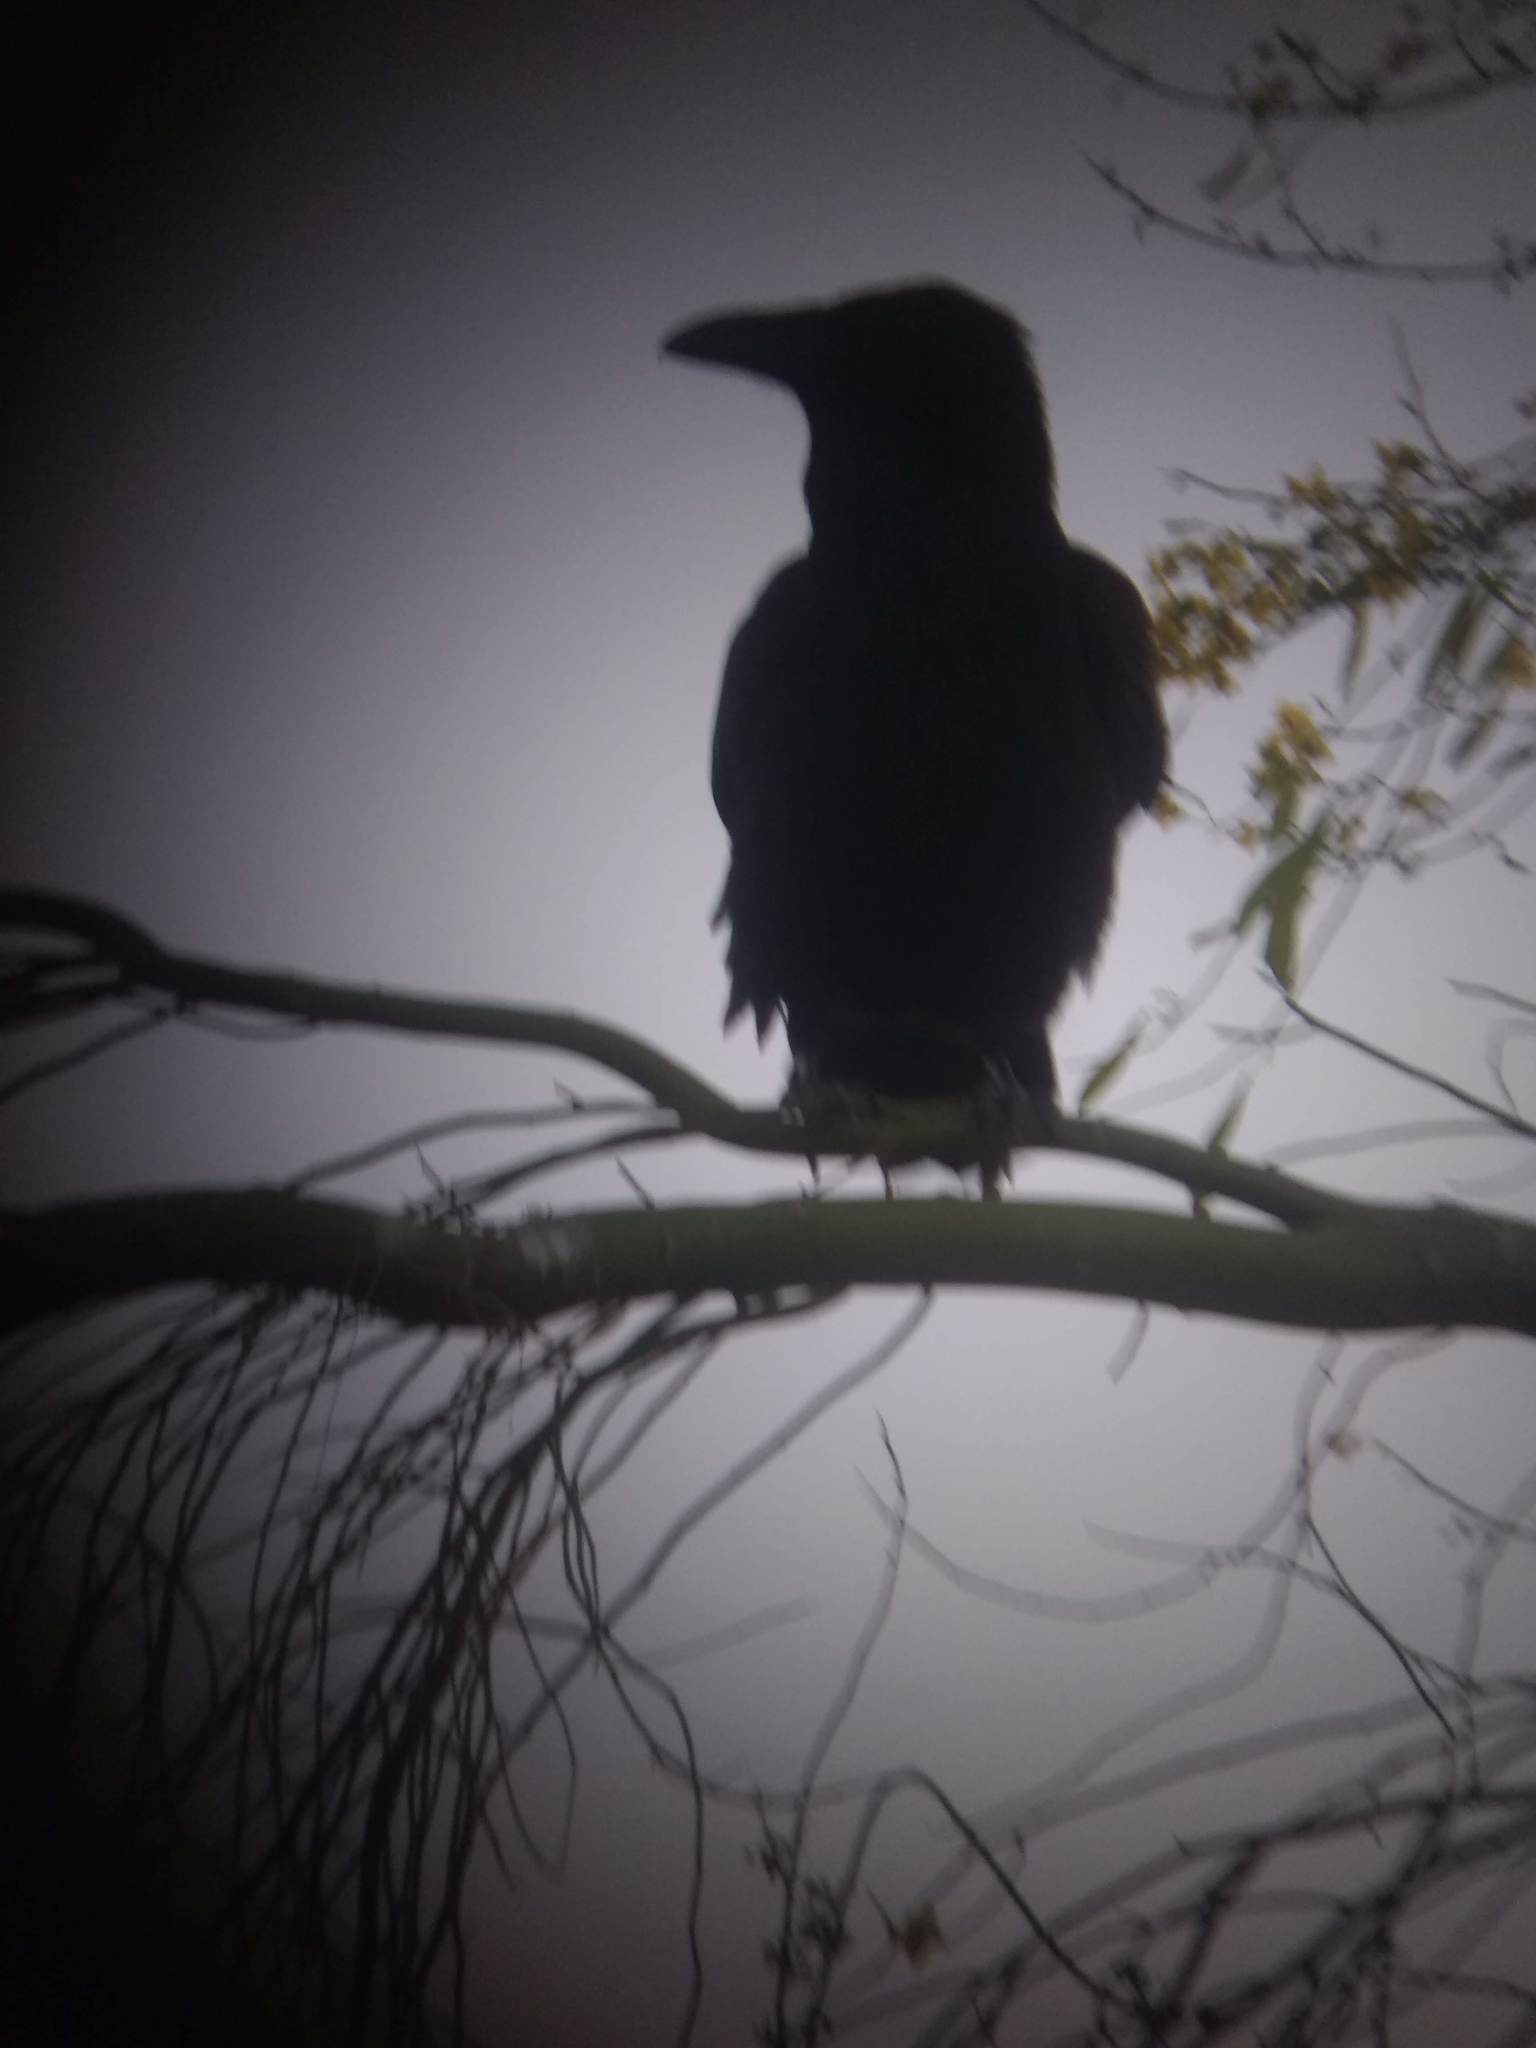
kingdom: Animalia
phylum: Chordata
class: Aves
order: Passeriformes
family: Corvidae
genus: Corvus
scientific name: Corvus corax
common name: Common raven
